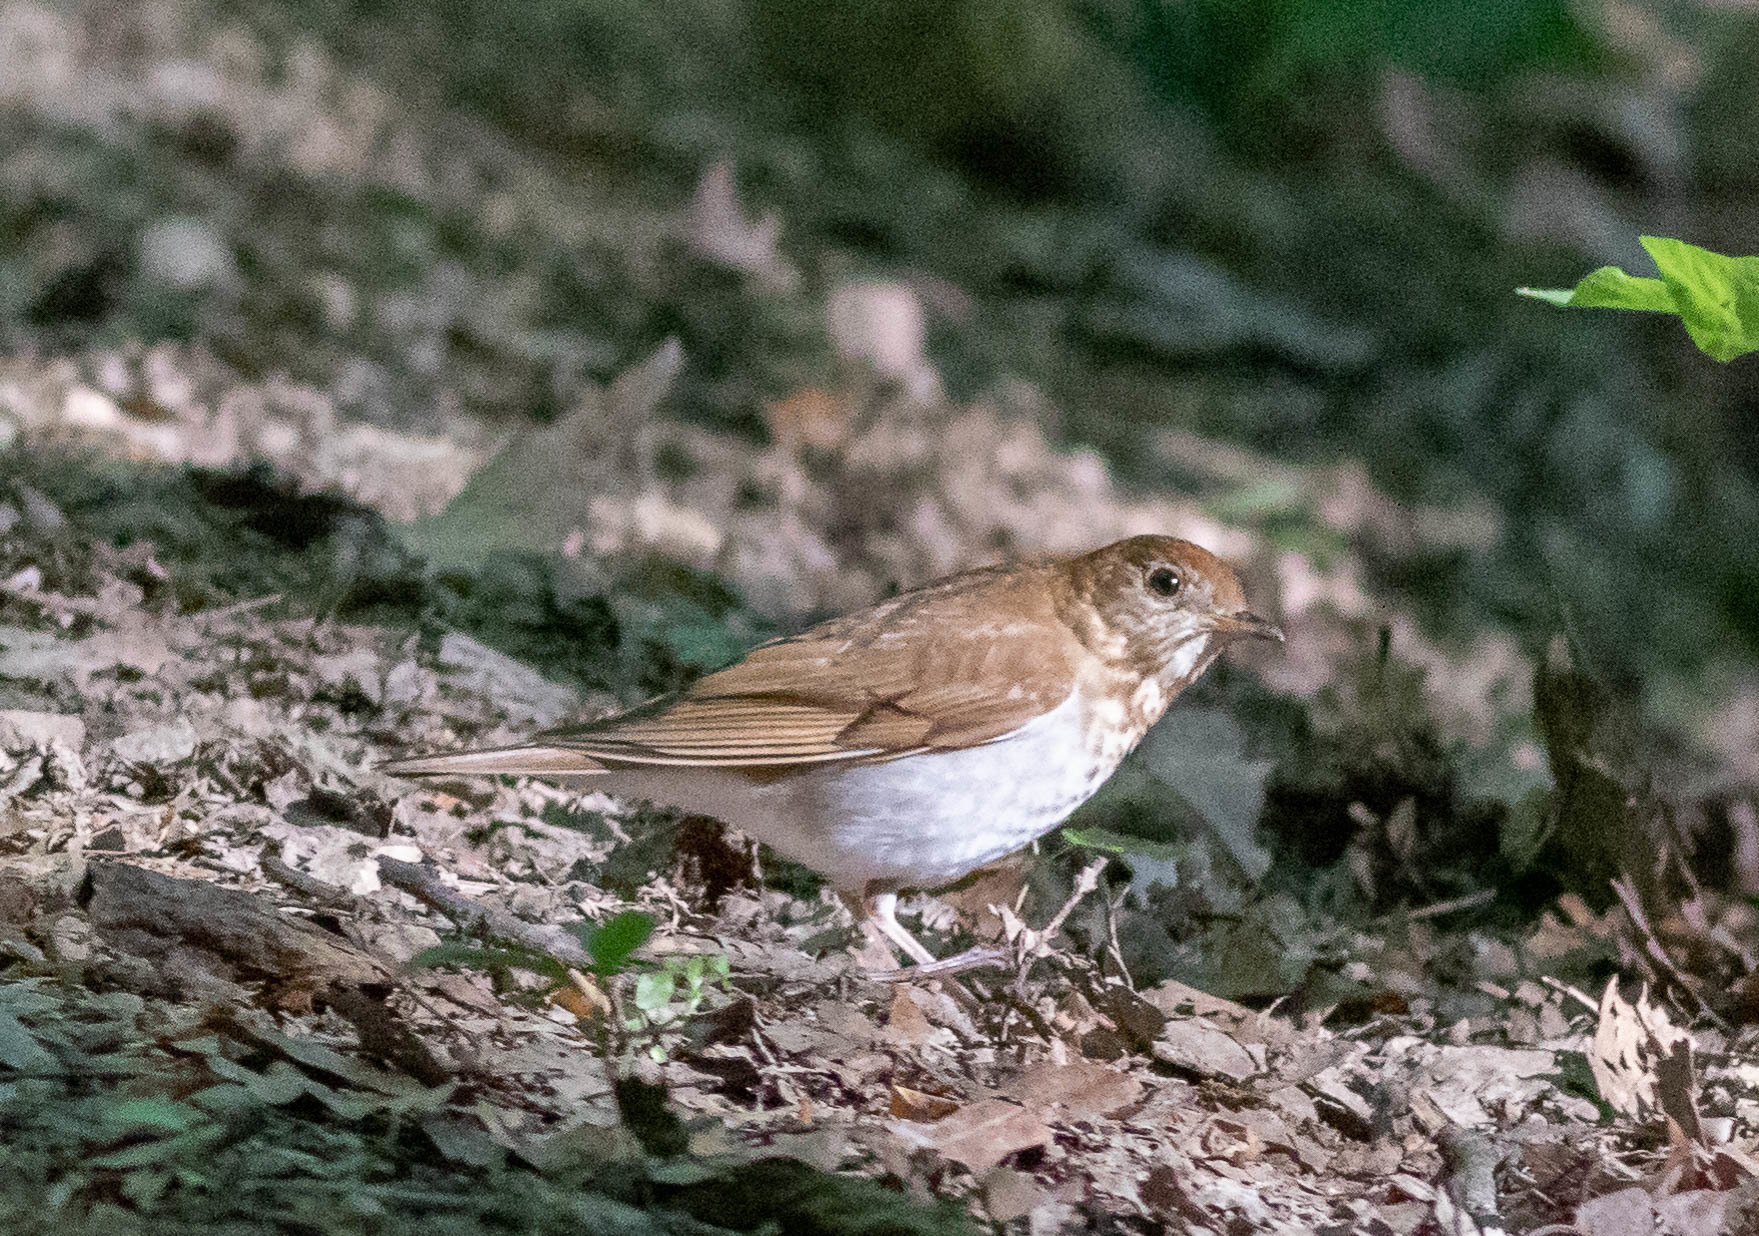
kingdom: Animalia
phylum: Chordata
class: Aves
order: Passeriformes
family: Turdidae
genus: Catharus
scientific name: Catharus fuscescens
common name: Veery
